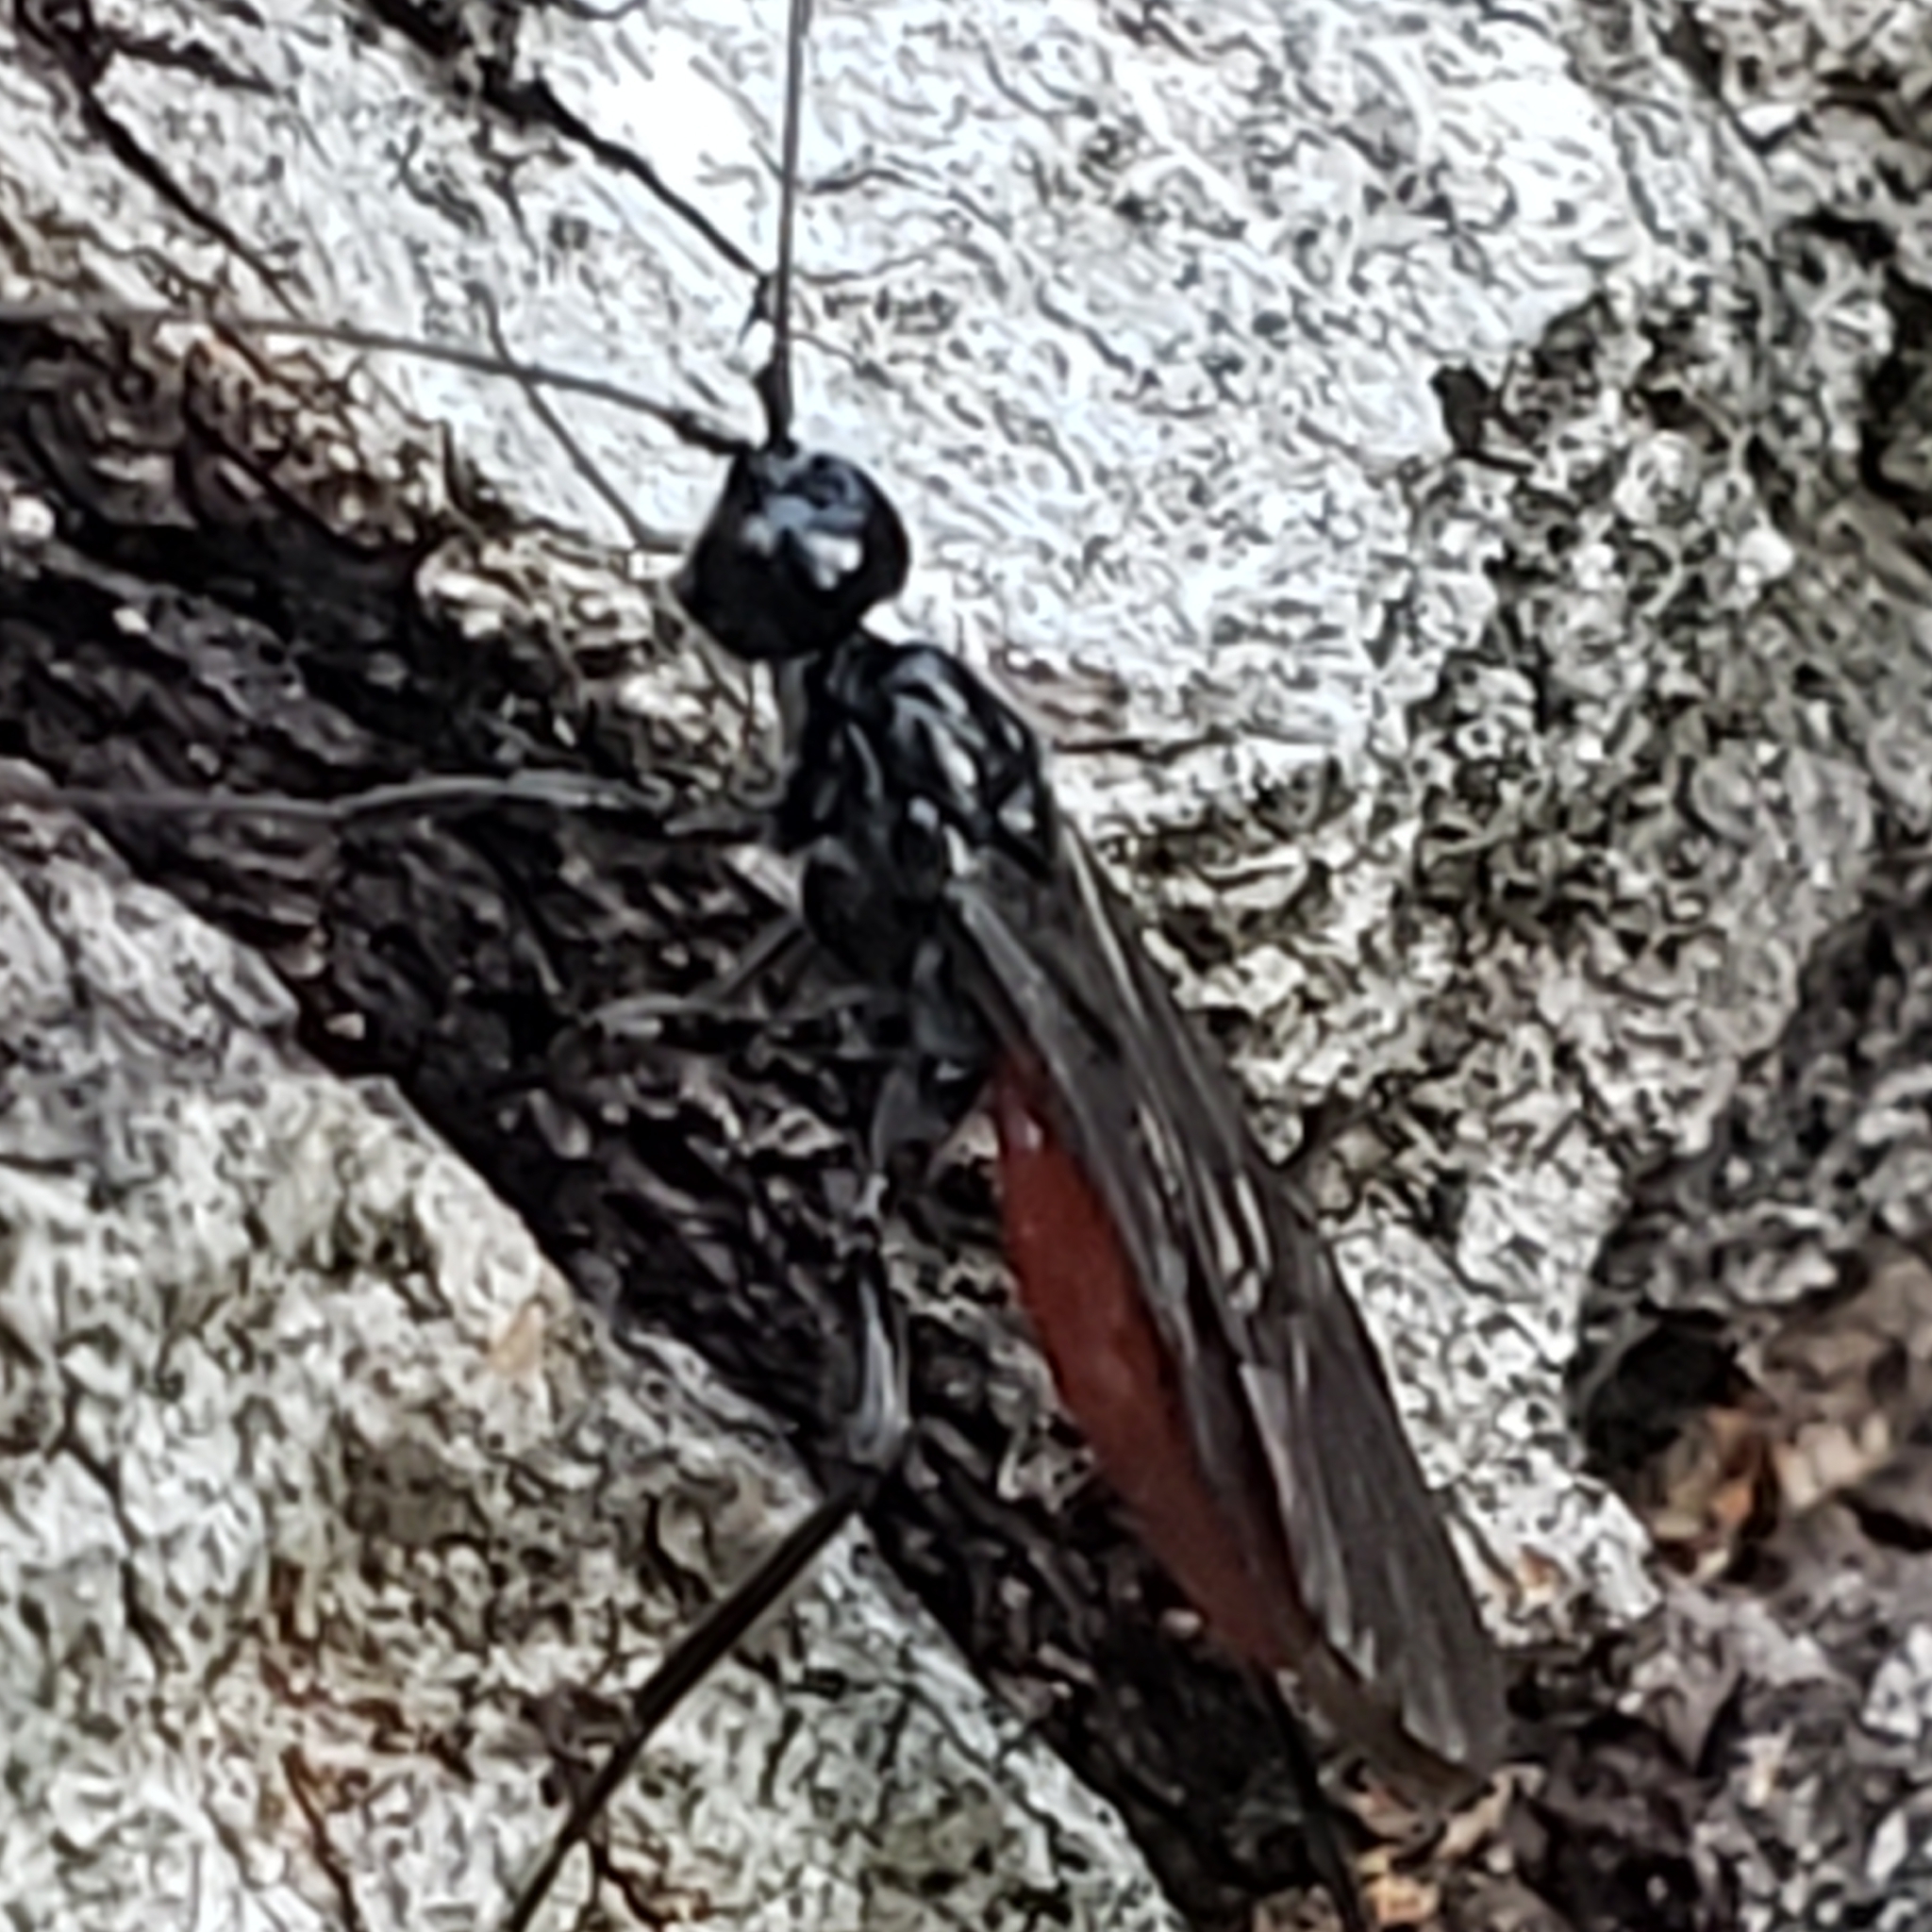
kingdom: Animalia
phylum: Arthropoda
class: Insecta
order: Hymenoptera
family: Braconidae
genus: Atanycolus
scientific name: Atanycolus
